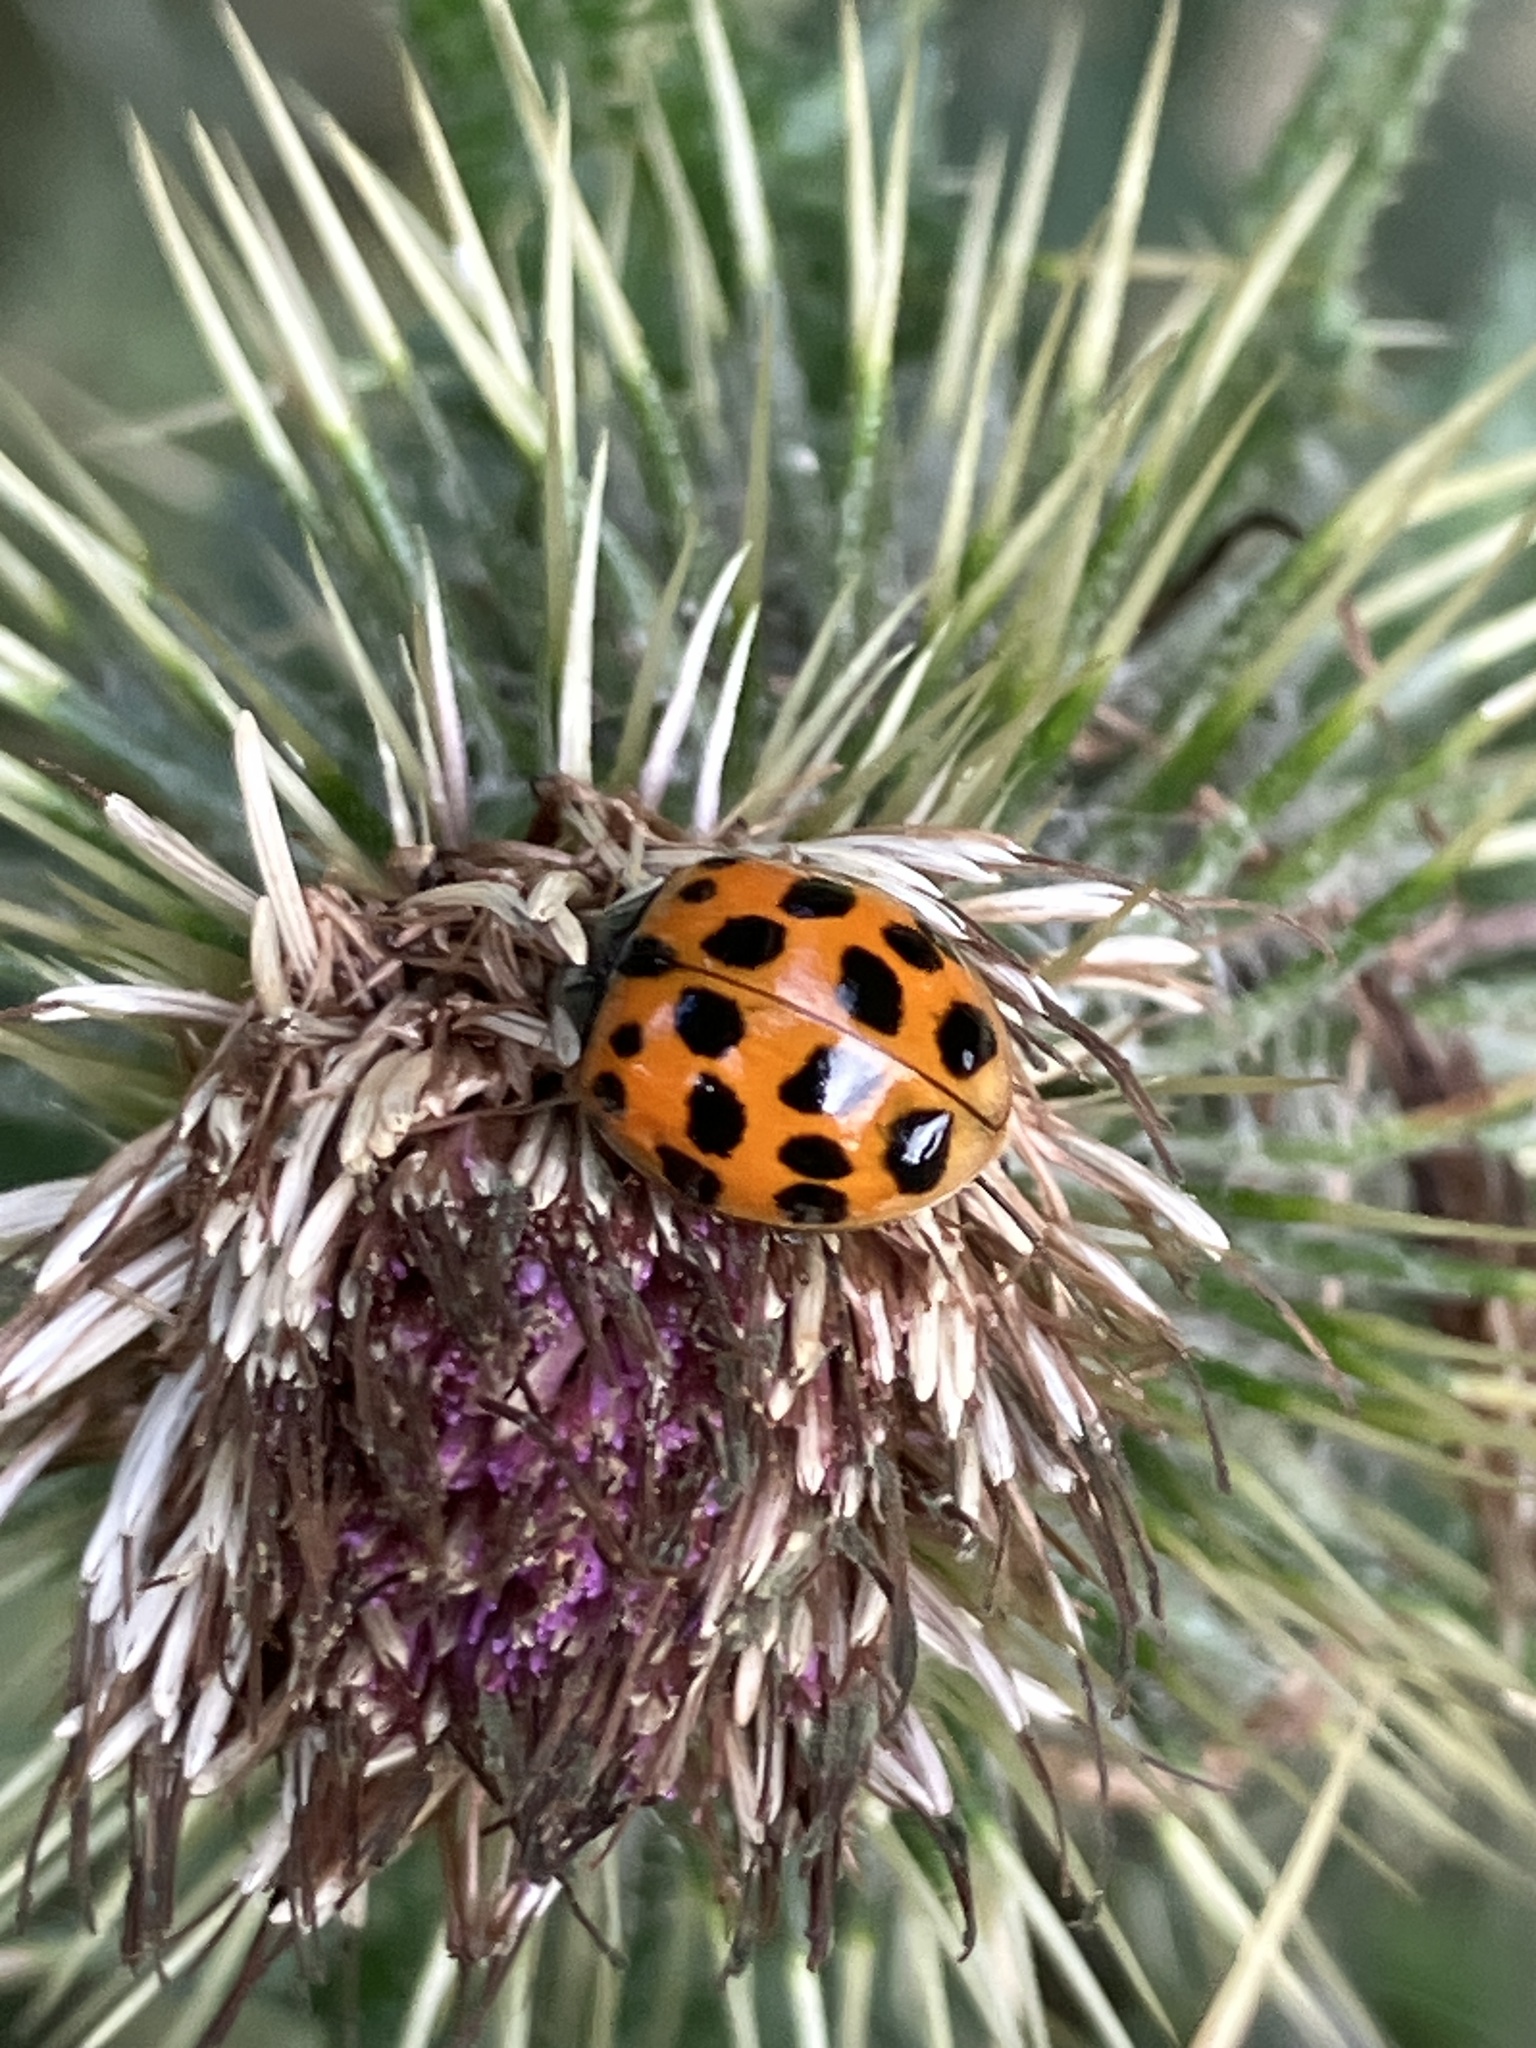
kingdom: Animalia
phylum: Arthropoda
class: Insecta
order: Coleoptera
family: Coccinellidae
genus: Harmonia
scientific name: Harmonia axyridis
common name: Harlequin ladybird
